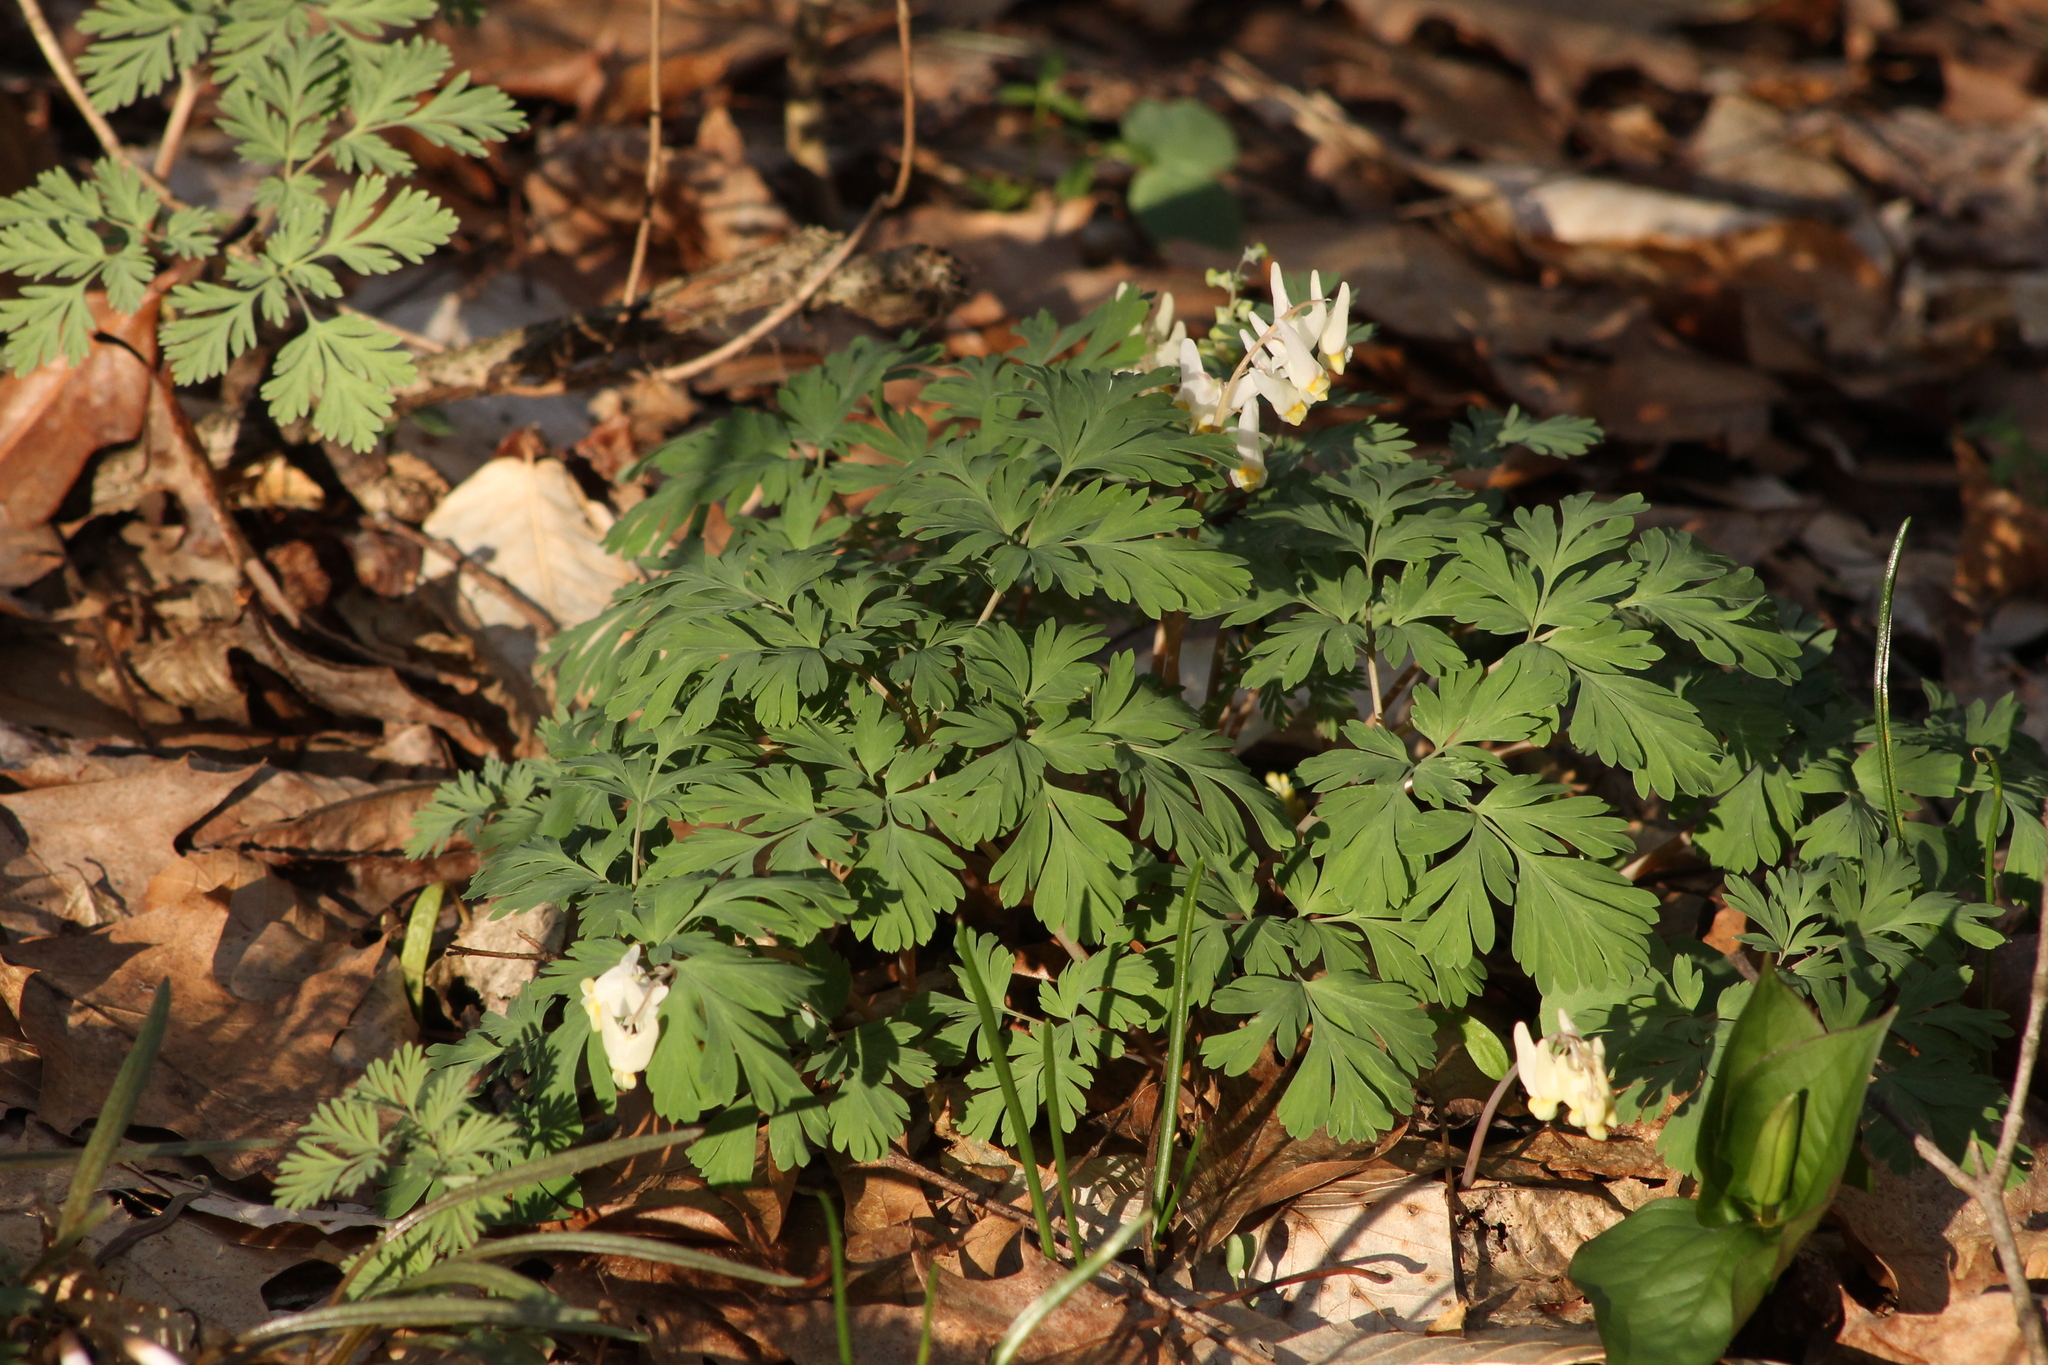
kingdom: Plantae
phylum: Tracheophyta
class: Magnoliopsida
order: Ranunculales
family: Papaveraceae
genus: Dicentra
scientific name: Dicentra cucullaria
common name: Dutchman's breeches
